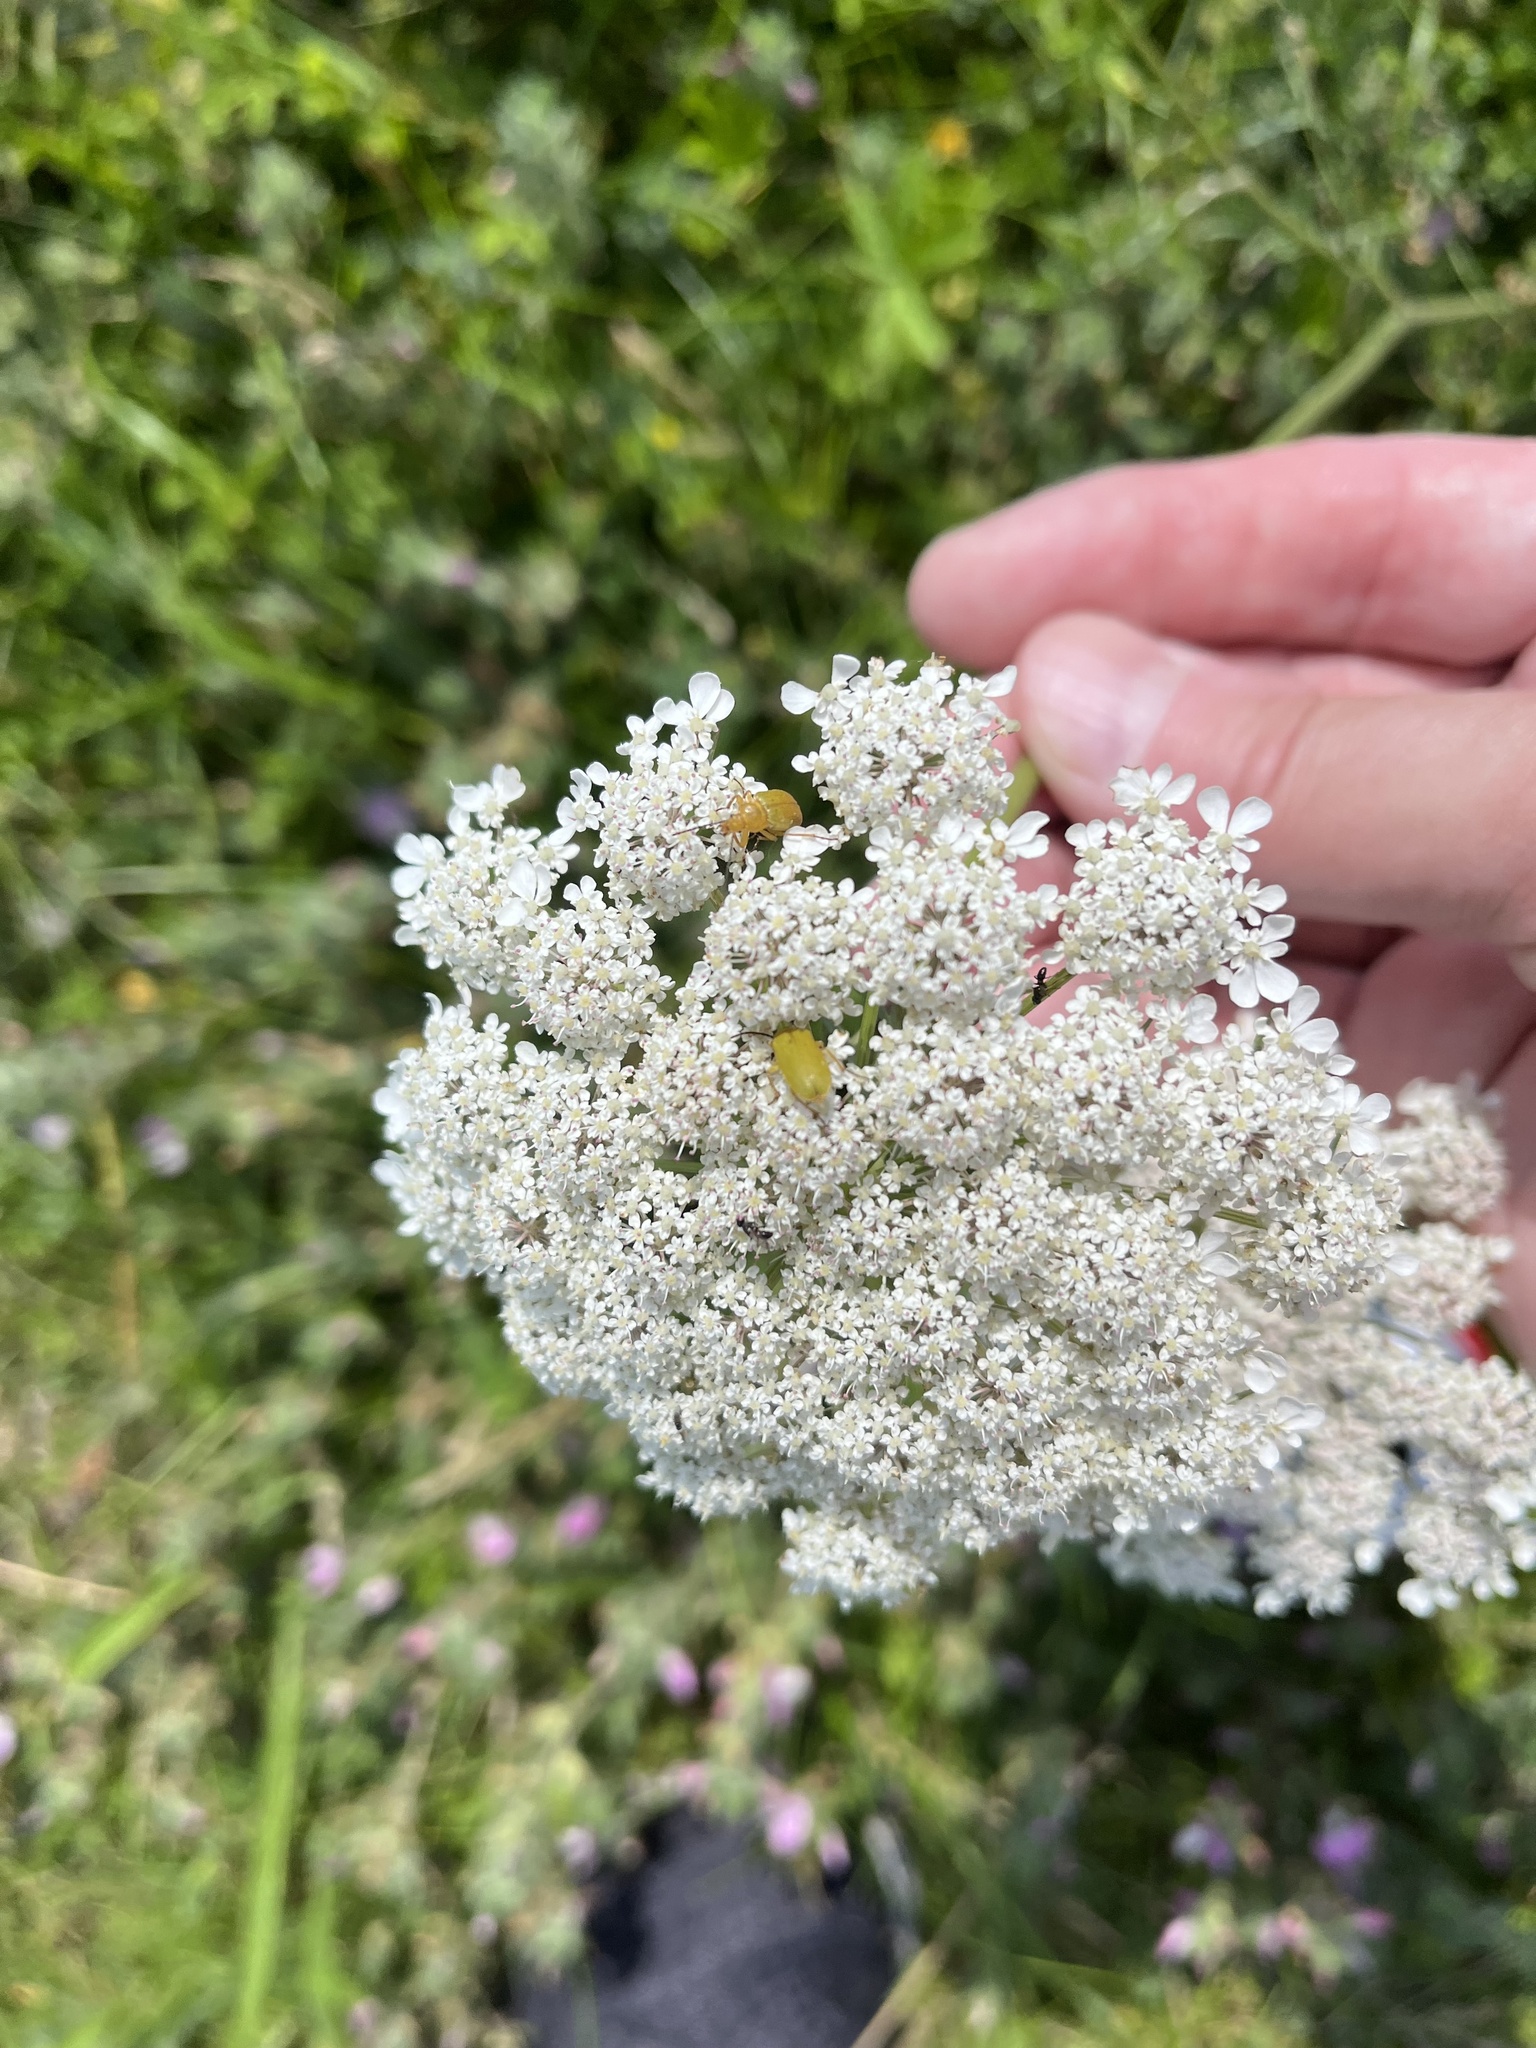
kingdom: Animalia
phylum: Arthropoda
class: Insecta
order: Coleoptera
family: Tenebrionidae
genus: Cteniopus
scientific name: Cteniopus sulphureus
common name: Sulphur beetle
